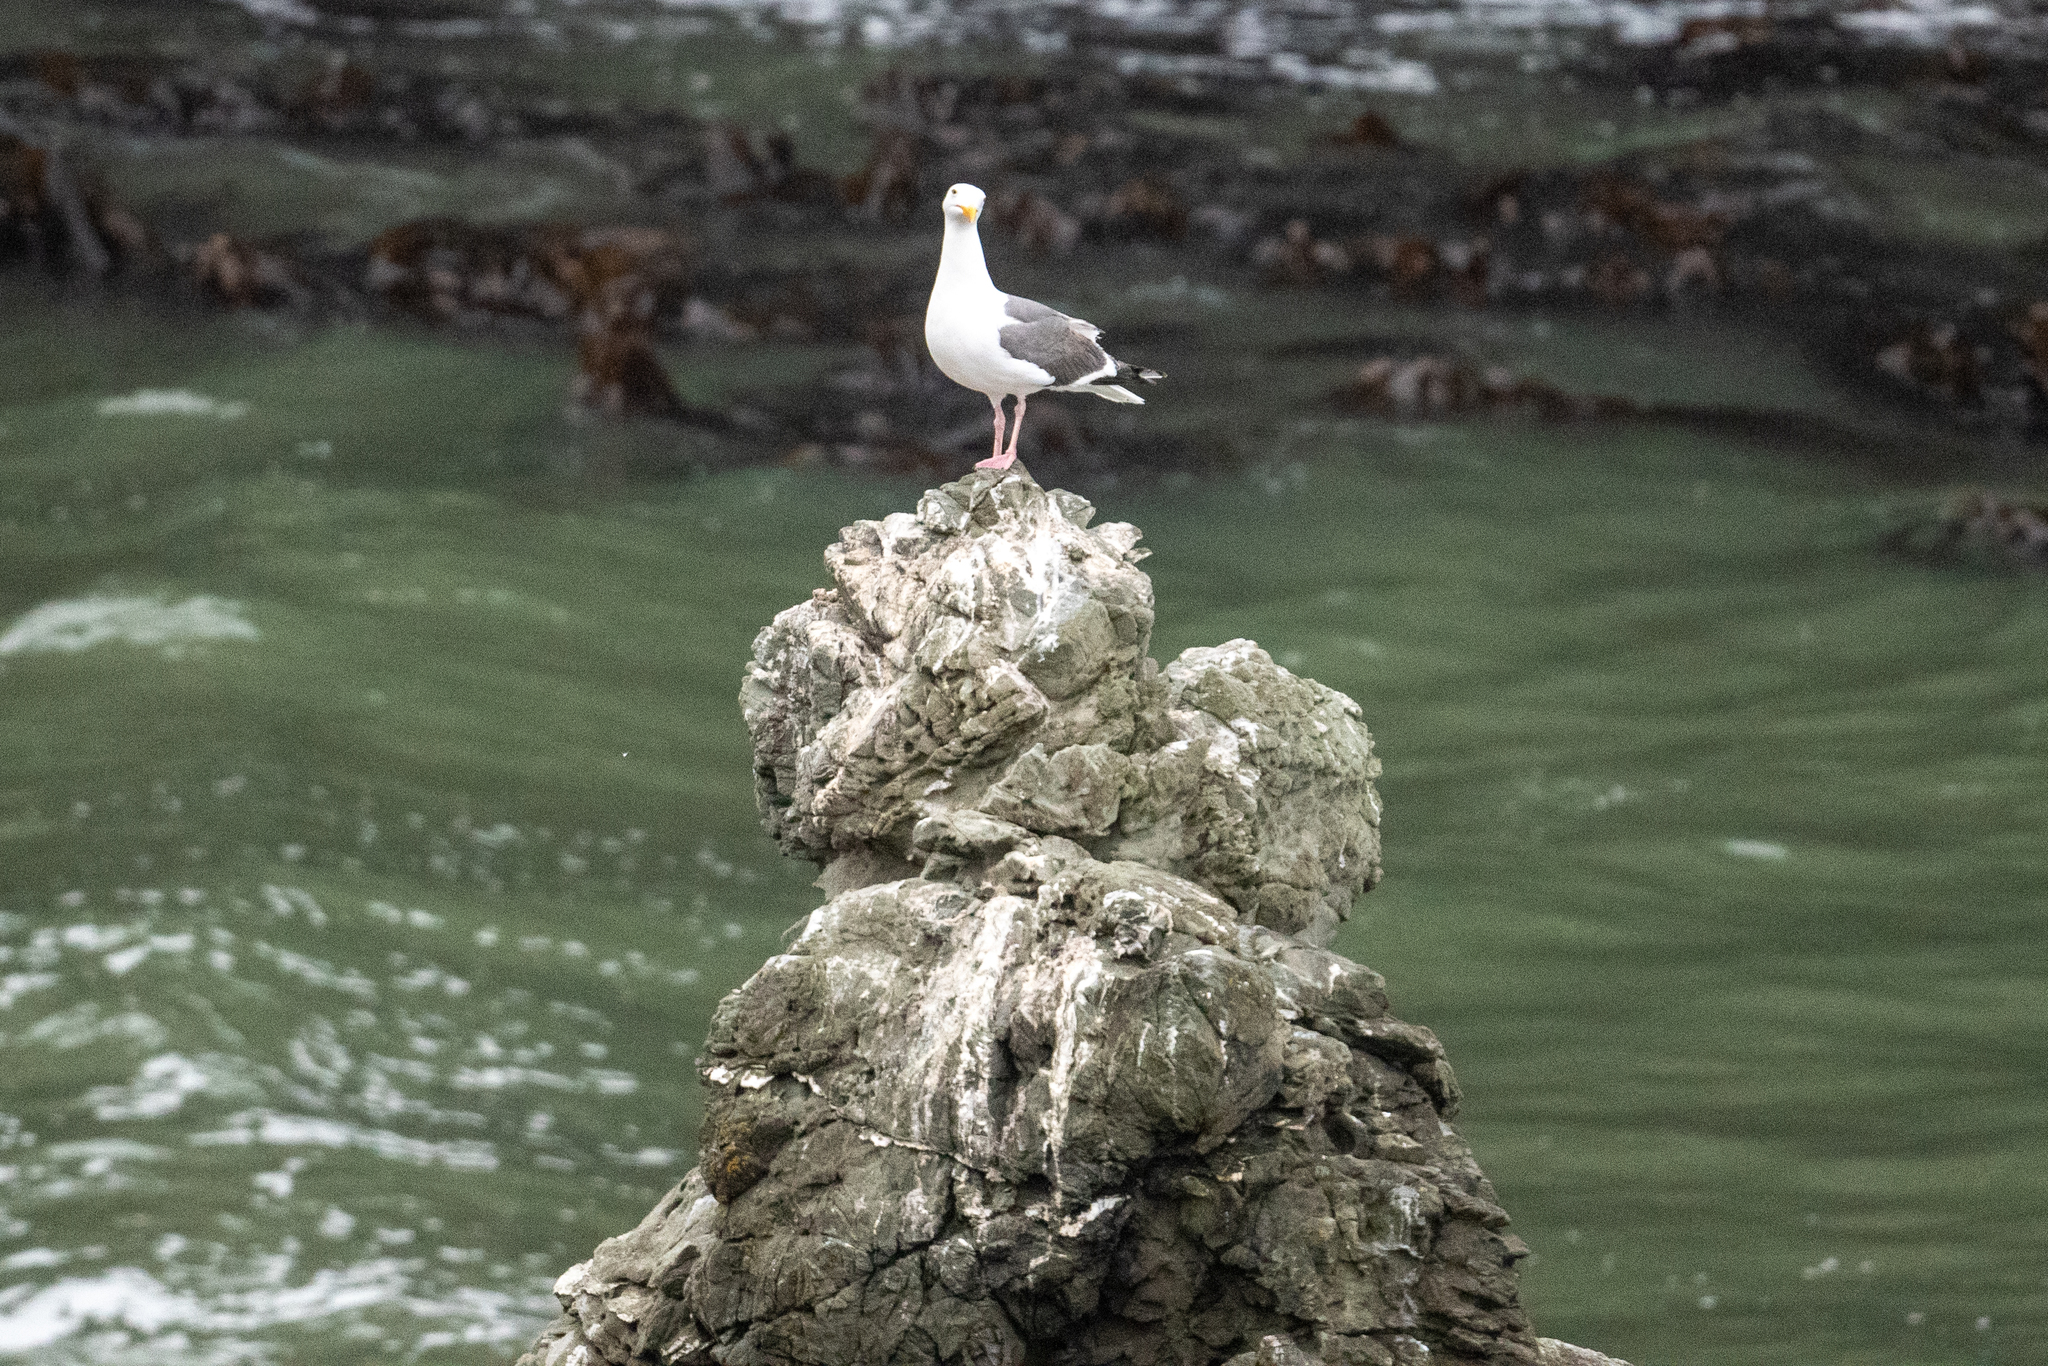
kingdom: Animalia
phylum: Chordata
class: Aves
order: Charadriiformes
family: Laridae
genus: Larus
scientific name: Larus occidentalis
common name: Western gull
